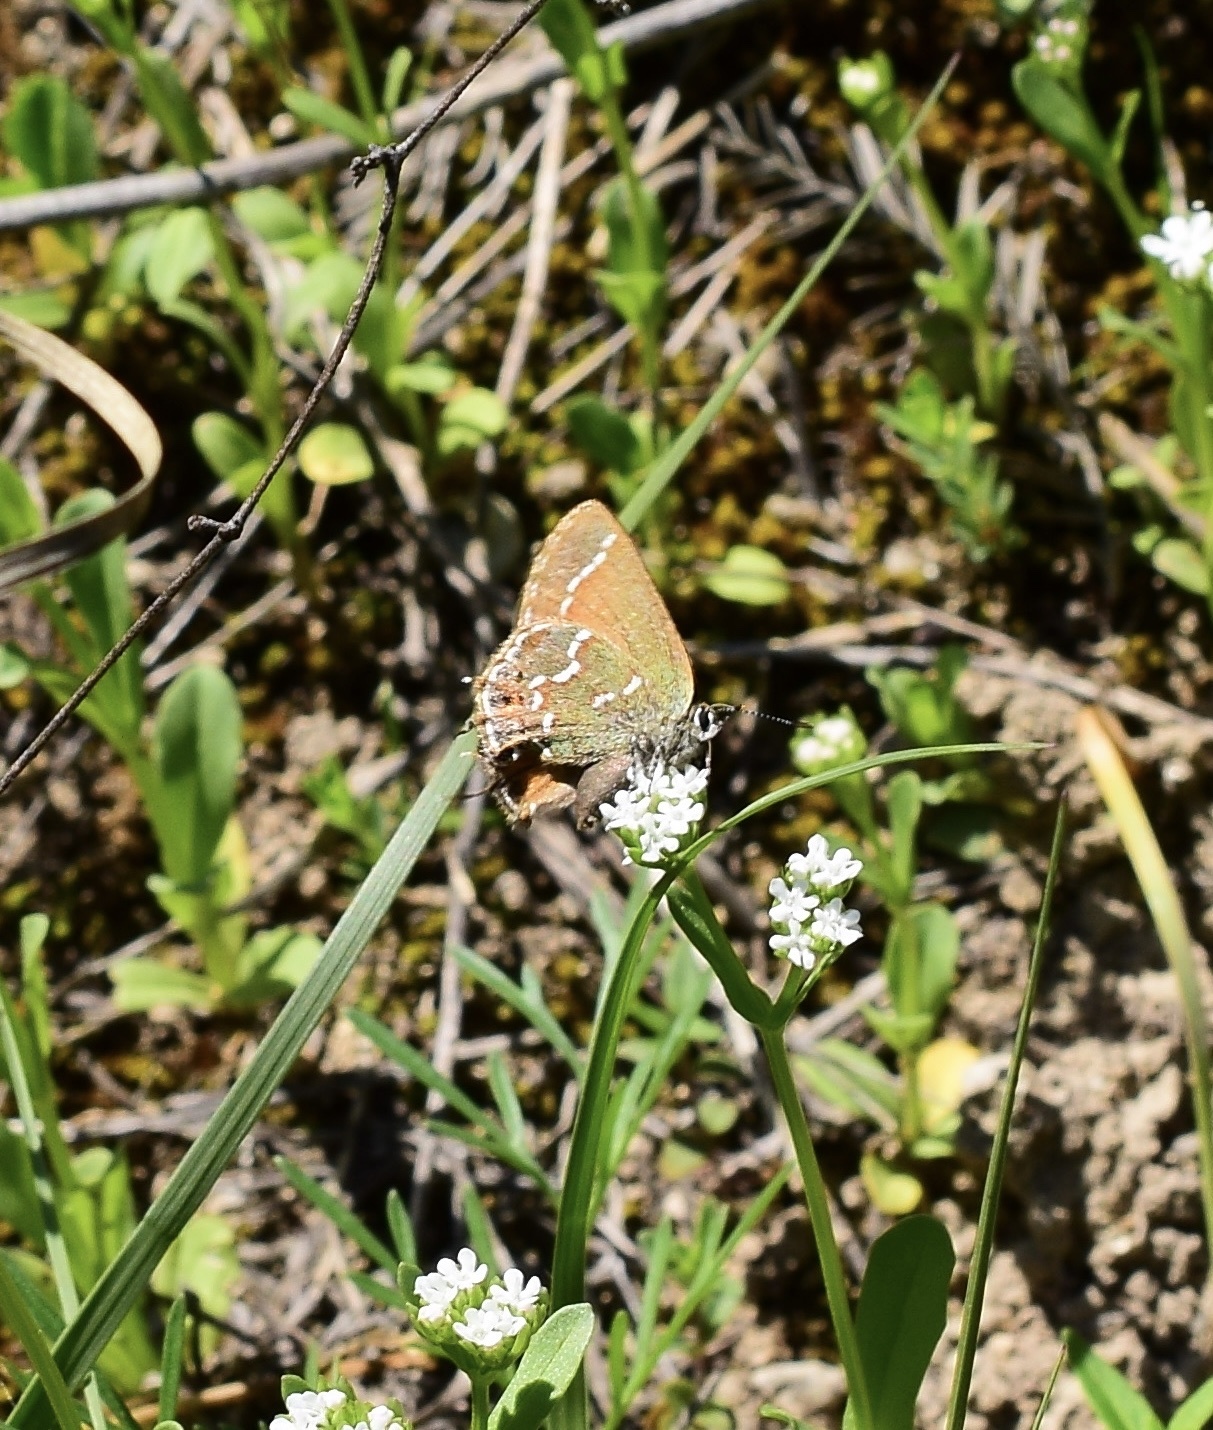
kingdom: Animalia
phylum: Arthropoda
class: Insecta
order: Lepidoptera
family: Lycaenidae
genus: Mitoura
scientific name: Mitoura gryneus
